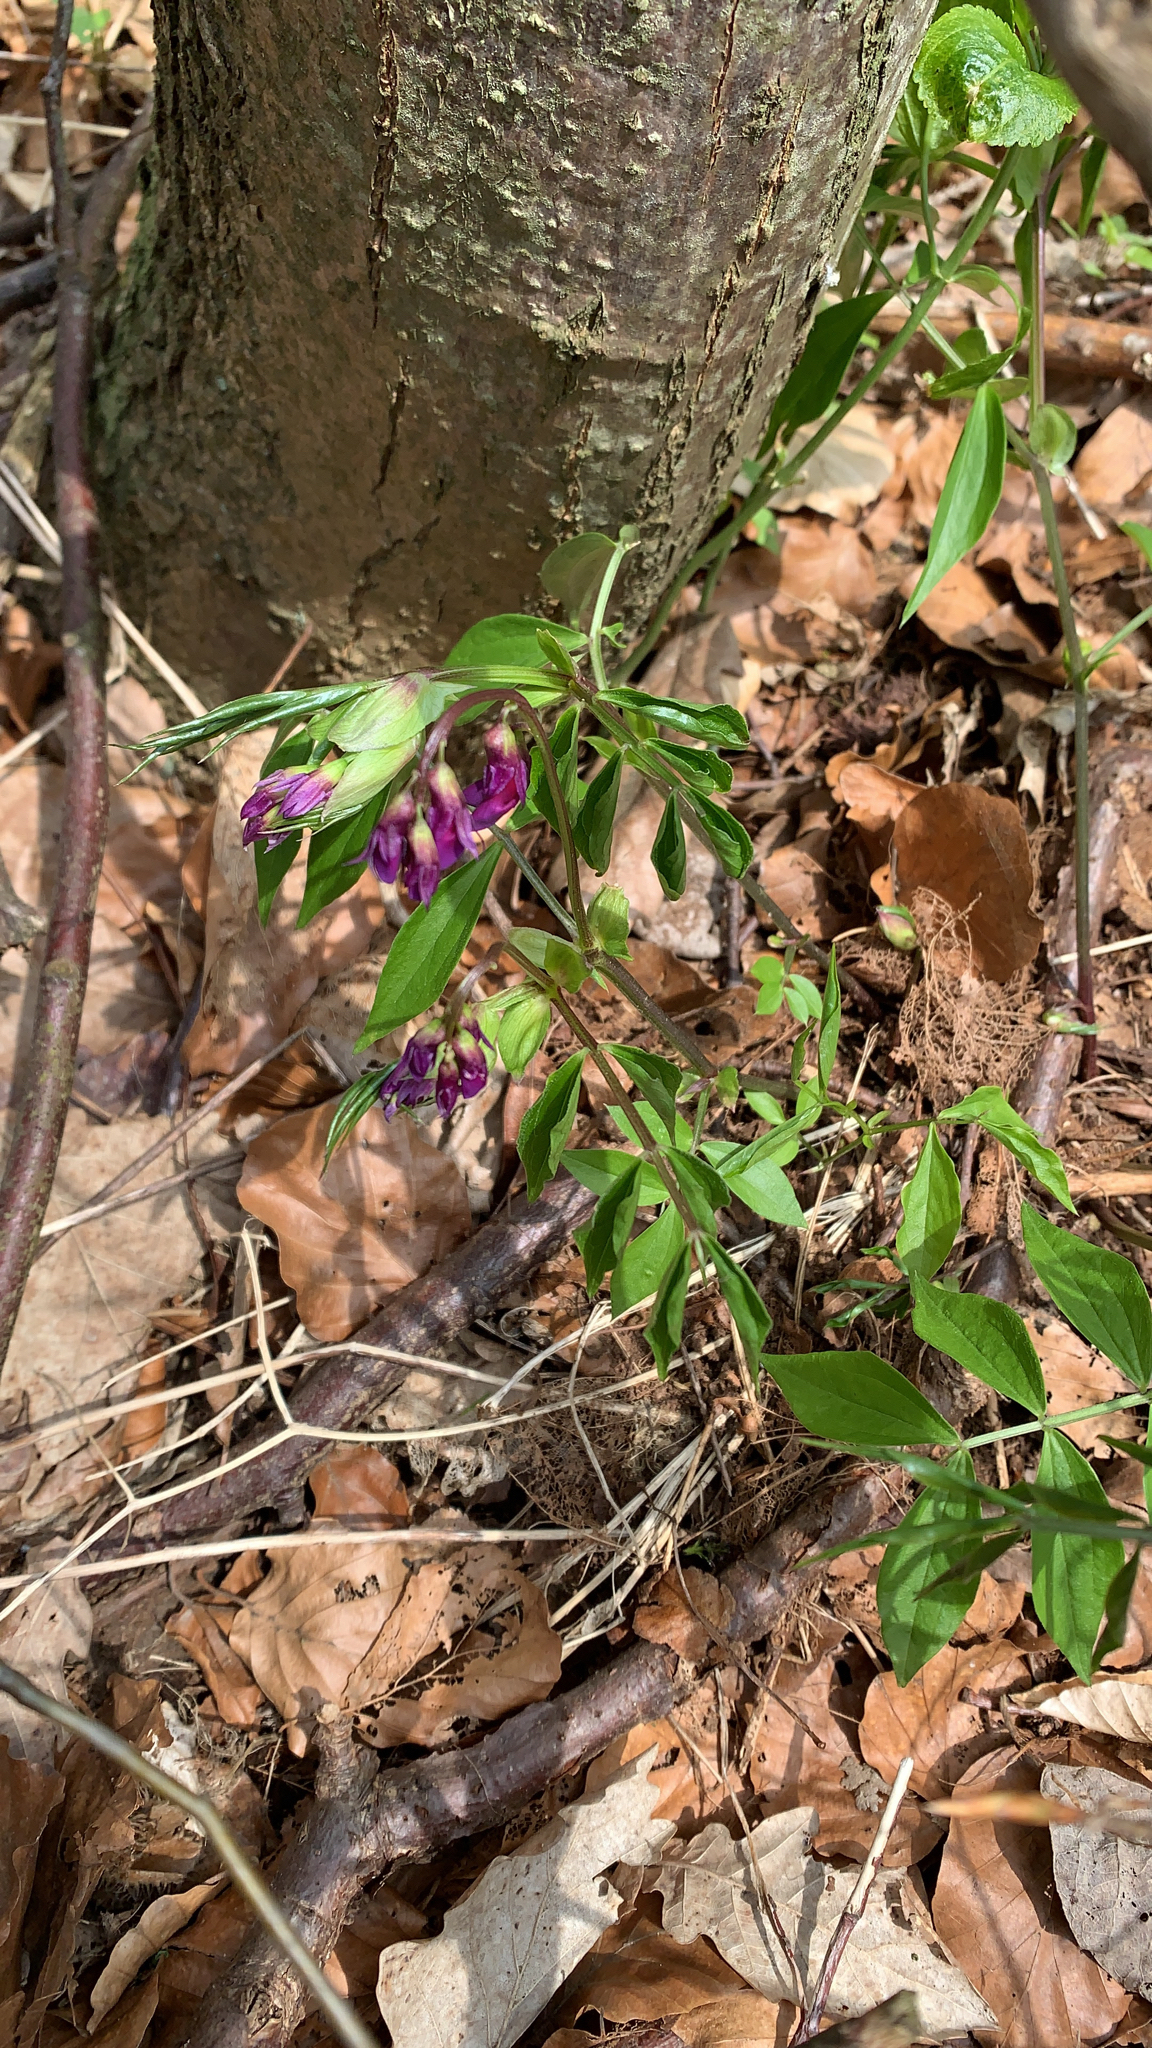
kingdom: Plantae
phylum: Tracheophyta
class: Magnoliopsida
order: Fabales
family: Fabaceae
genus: Lathyrus
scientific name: Lathyrus vernus
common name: Spring pea
